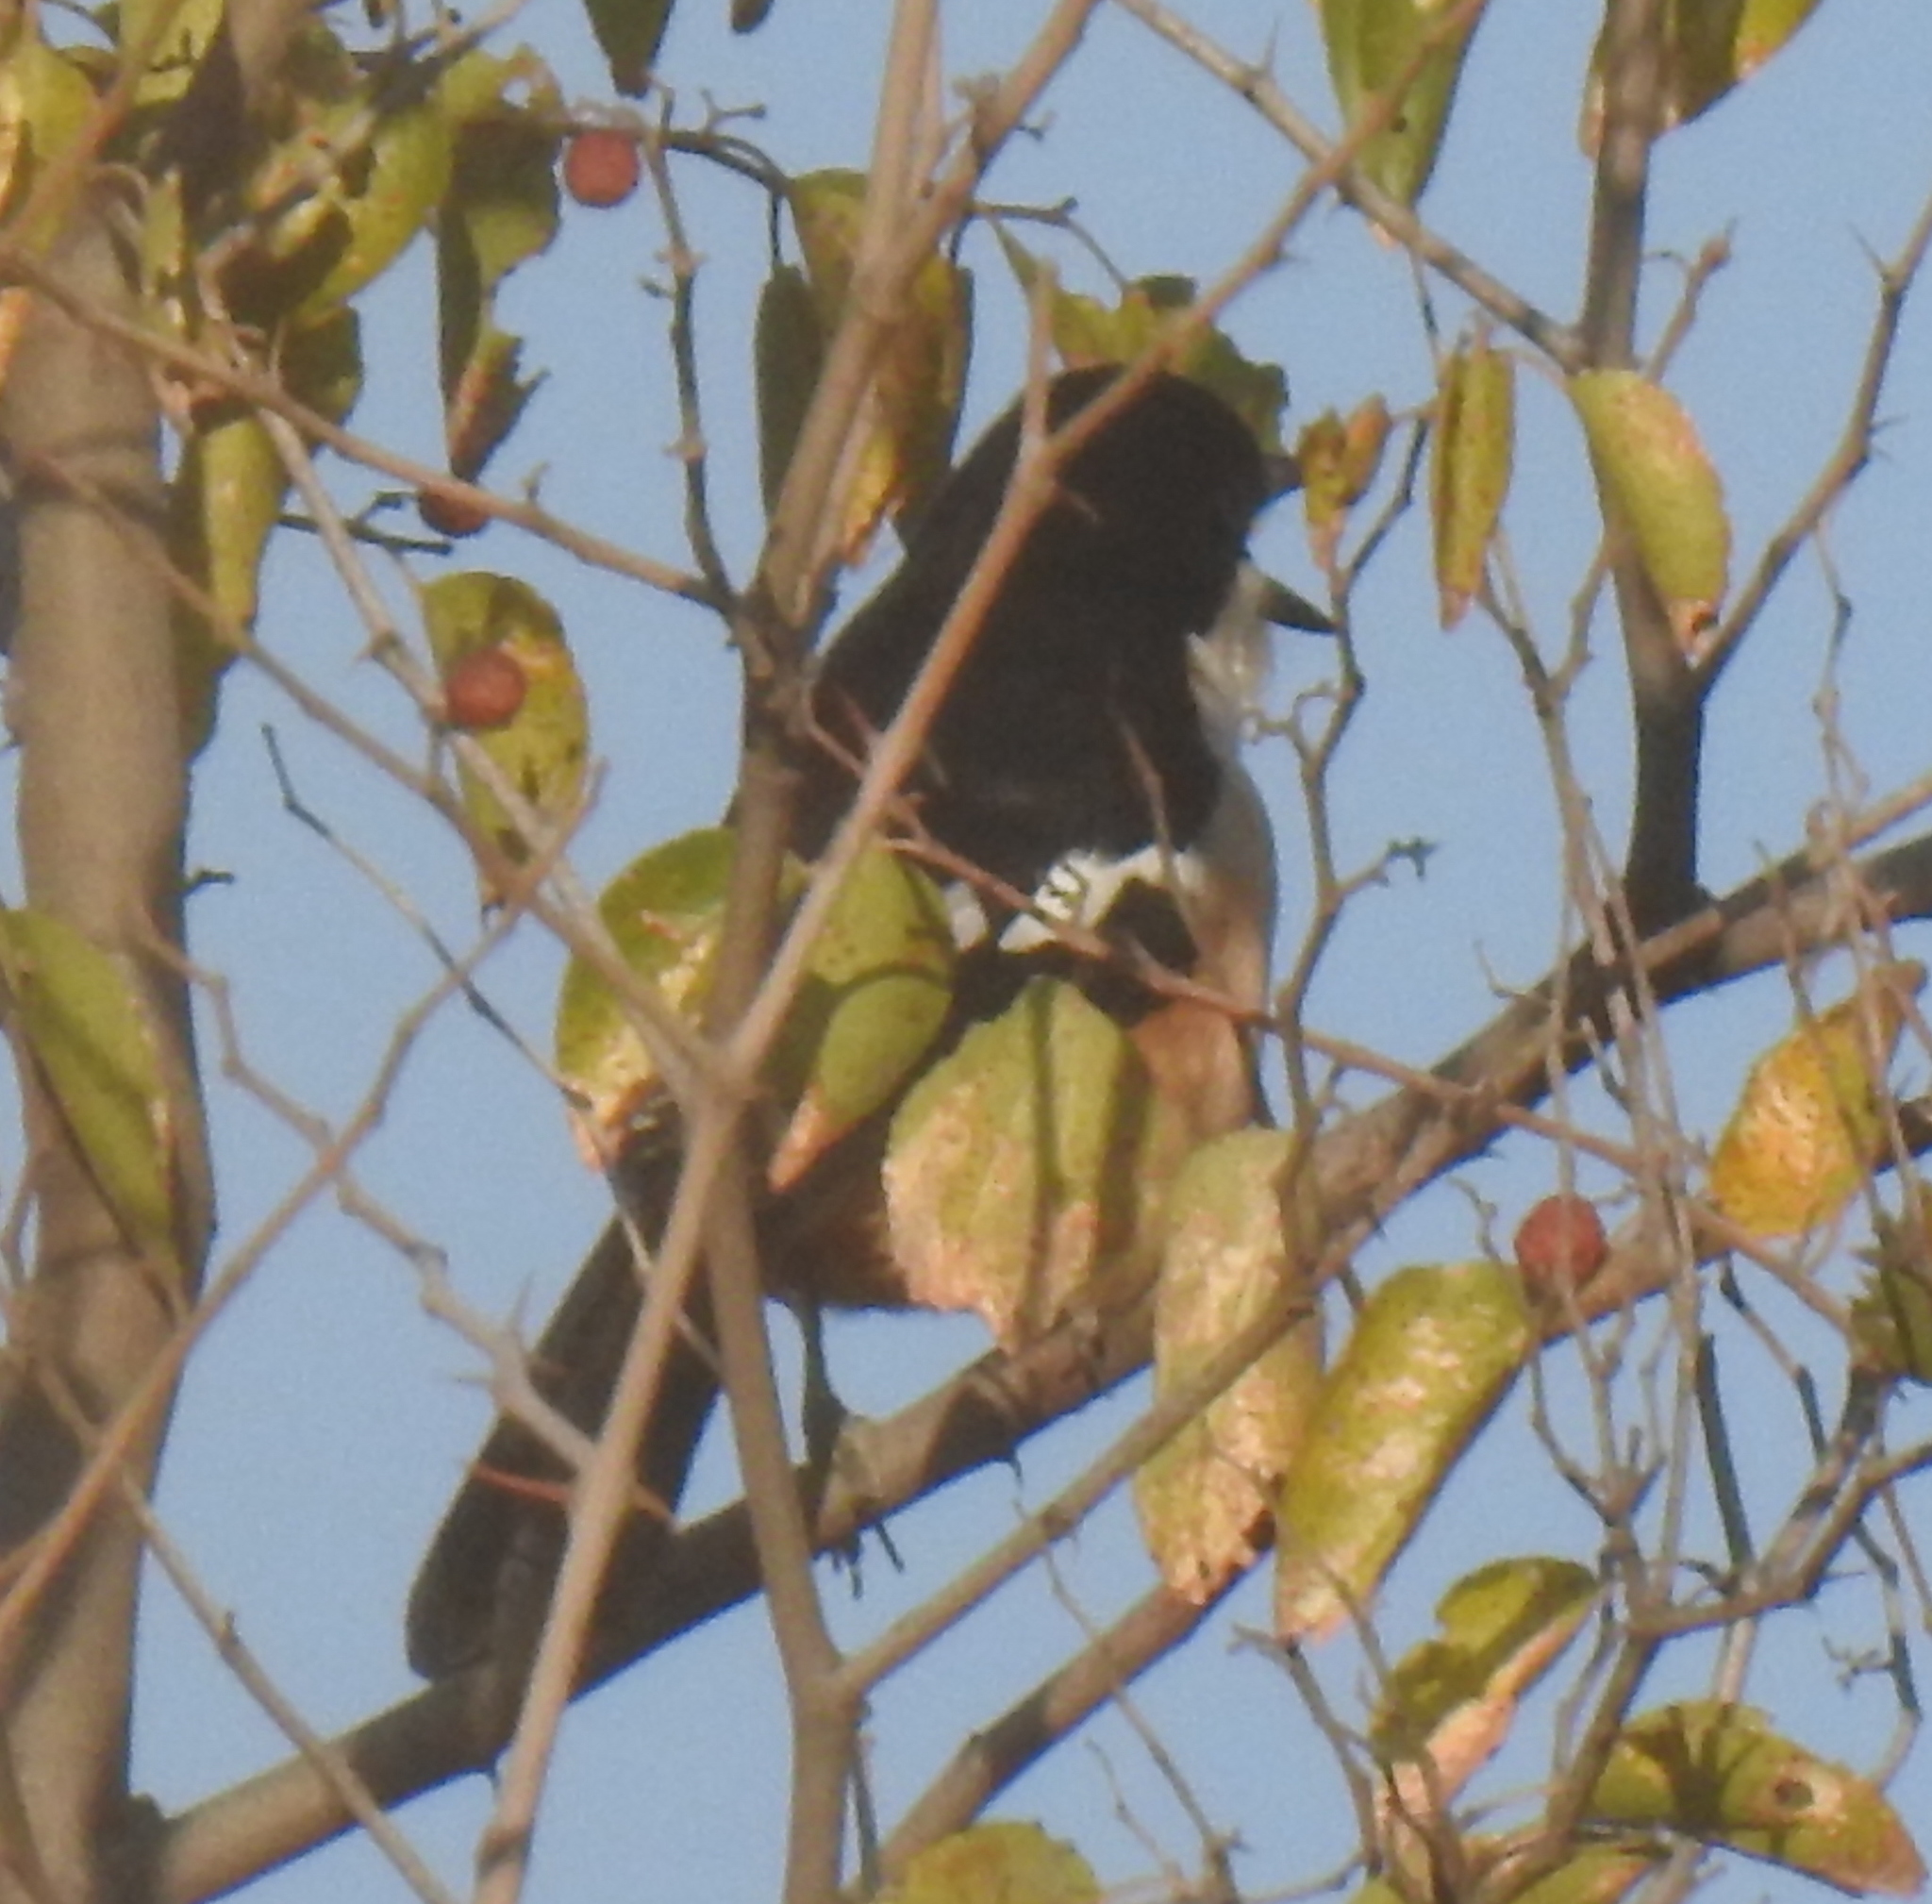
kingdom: Animalia
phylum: Chordata
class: Aves
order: Passeriformes
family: Malaconotidae
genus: Laniarius
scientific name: Laniarius ferrugineus
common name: Southern boubou
